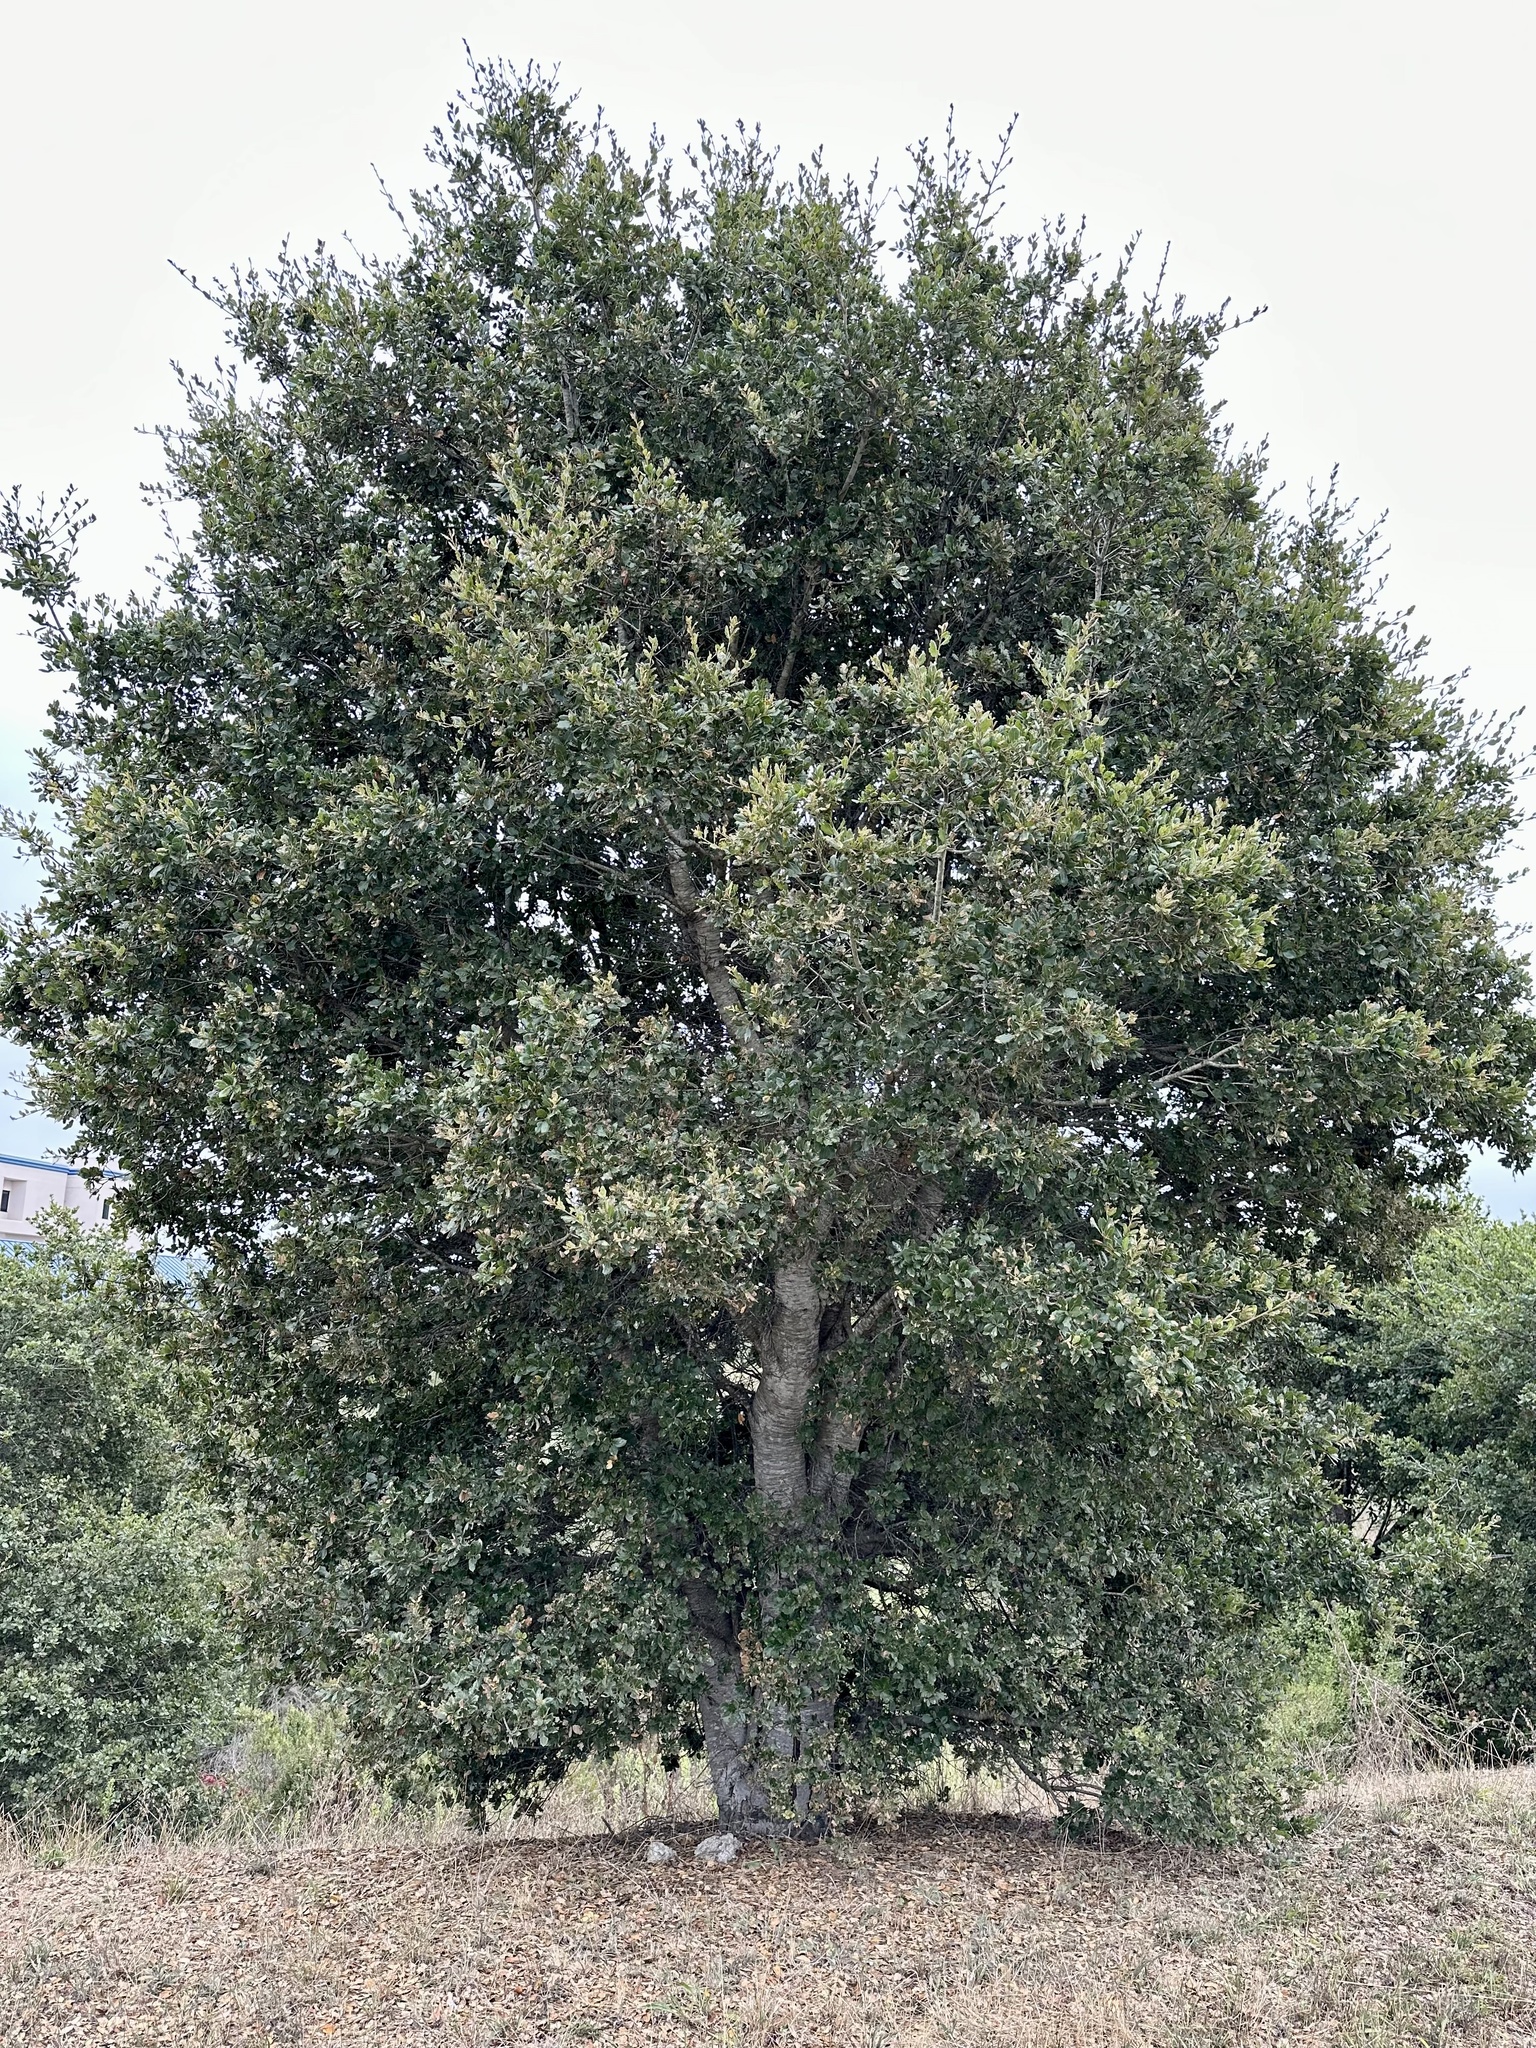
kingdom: Plantae
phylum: Tracheophyta
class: Magnoliopsida
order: Fagales
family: Fagaceae
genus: Quercus
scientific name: Quercus agrifolia
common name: California live oak
